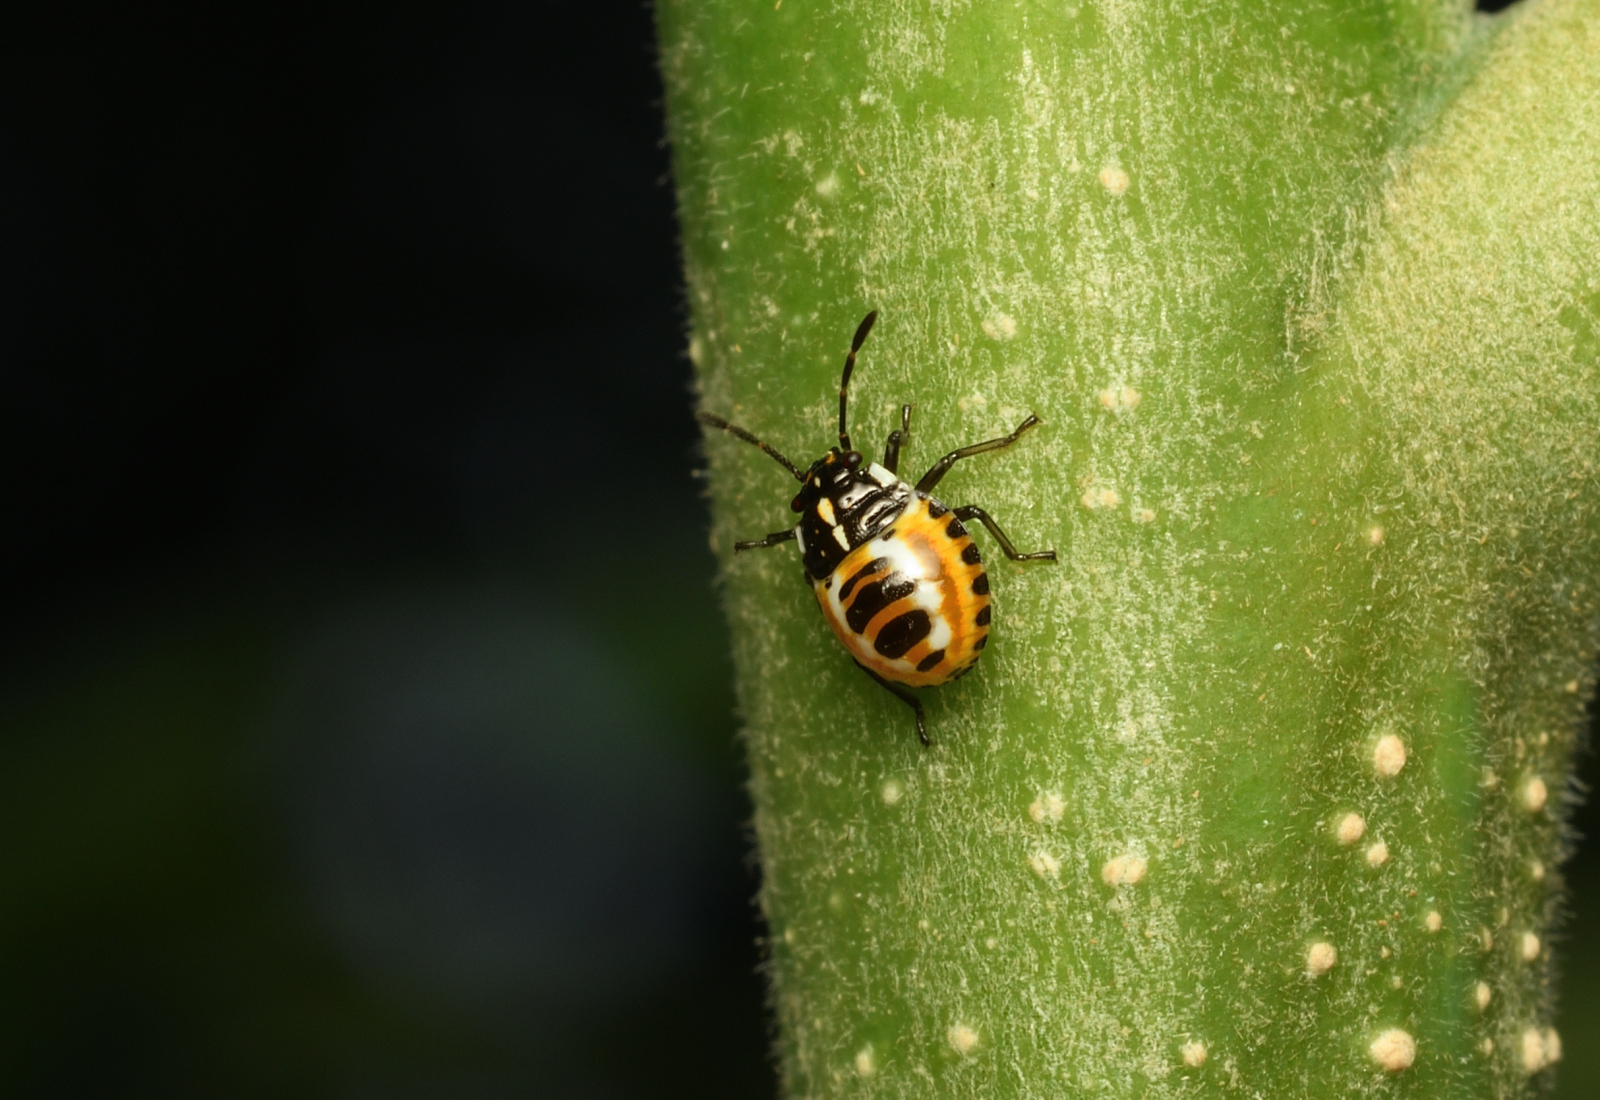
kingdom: Animalia
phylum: Arthropoda
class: Insecta
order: Hemiptera
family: Pentatomidae
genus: Stenozygum
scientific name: Stenozygum speciosum
